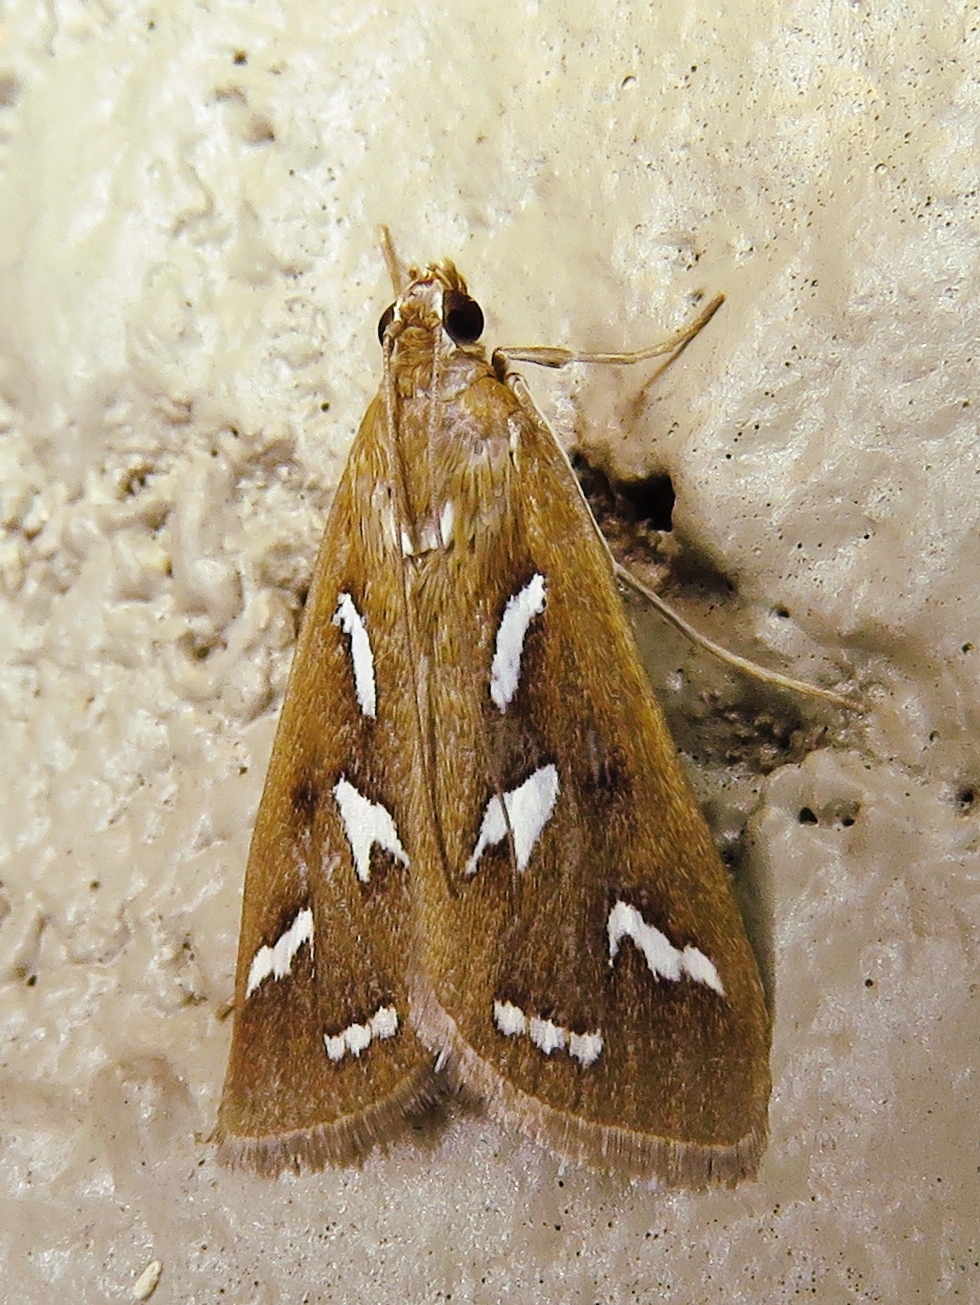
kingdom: Animalia
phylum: Arthropoda
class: Insecta
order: Lepidoptera
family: Crambidae
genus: Diastictis
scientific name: Diastictis fracturalis
